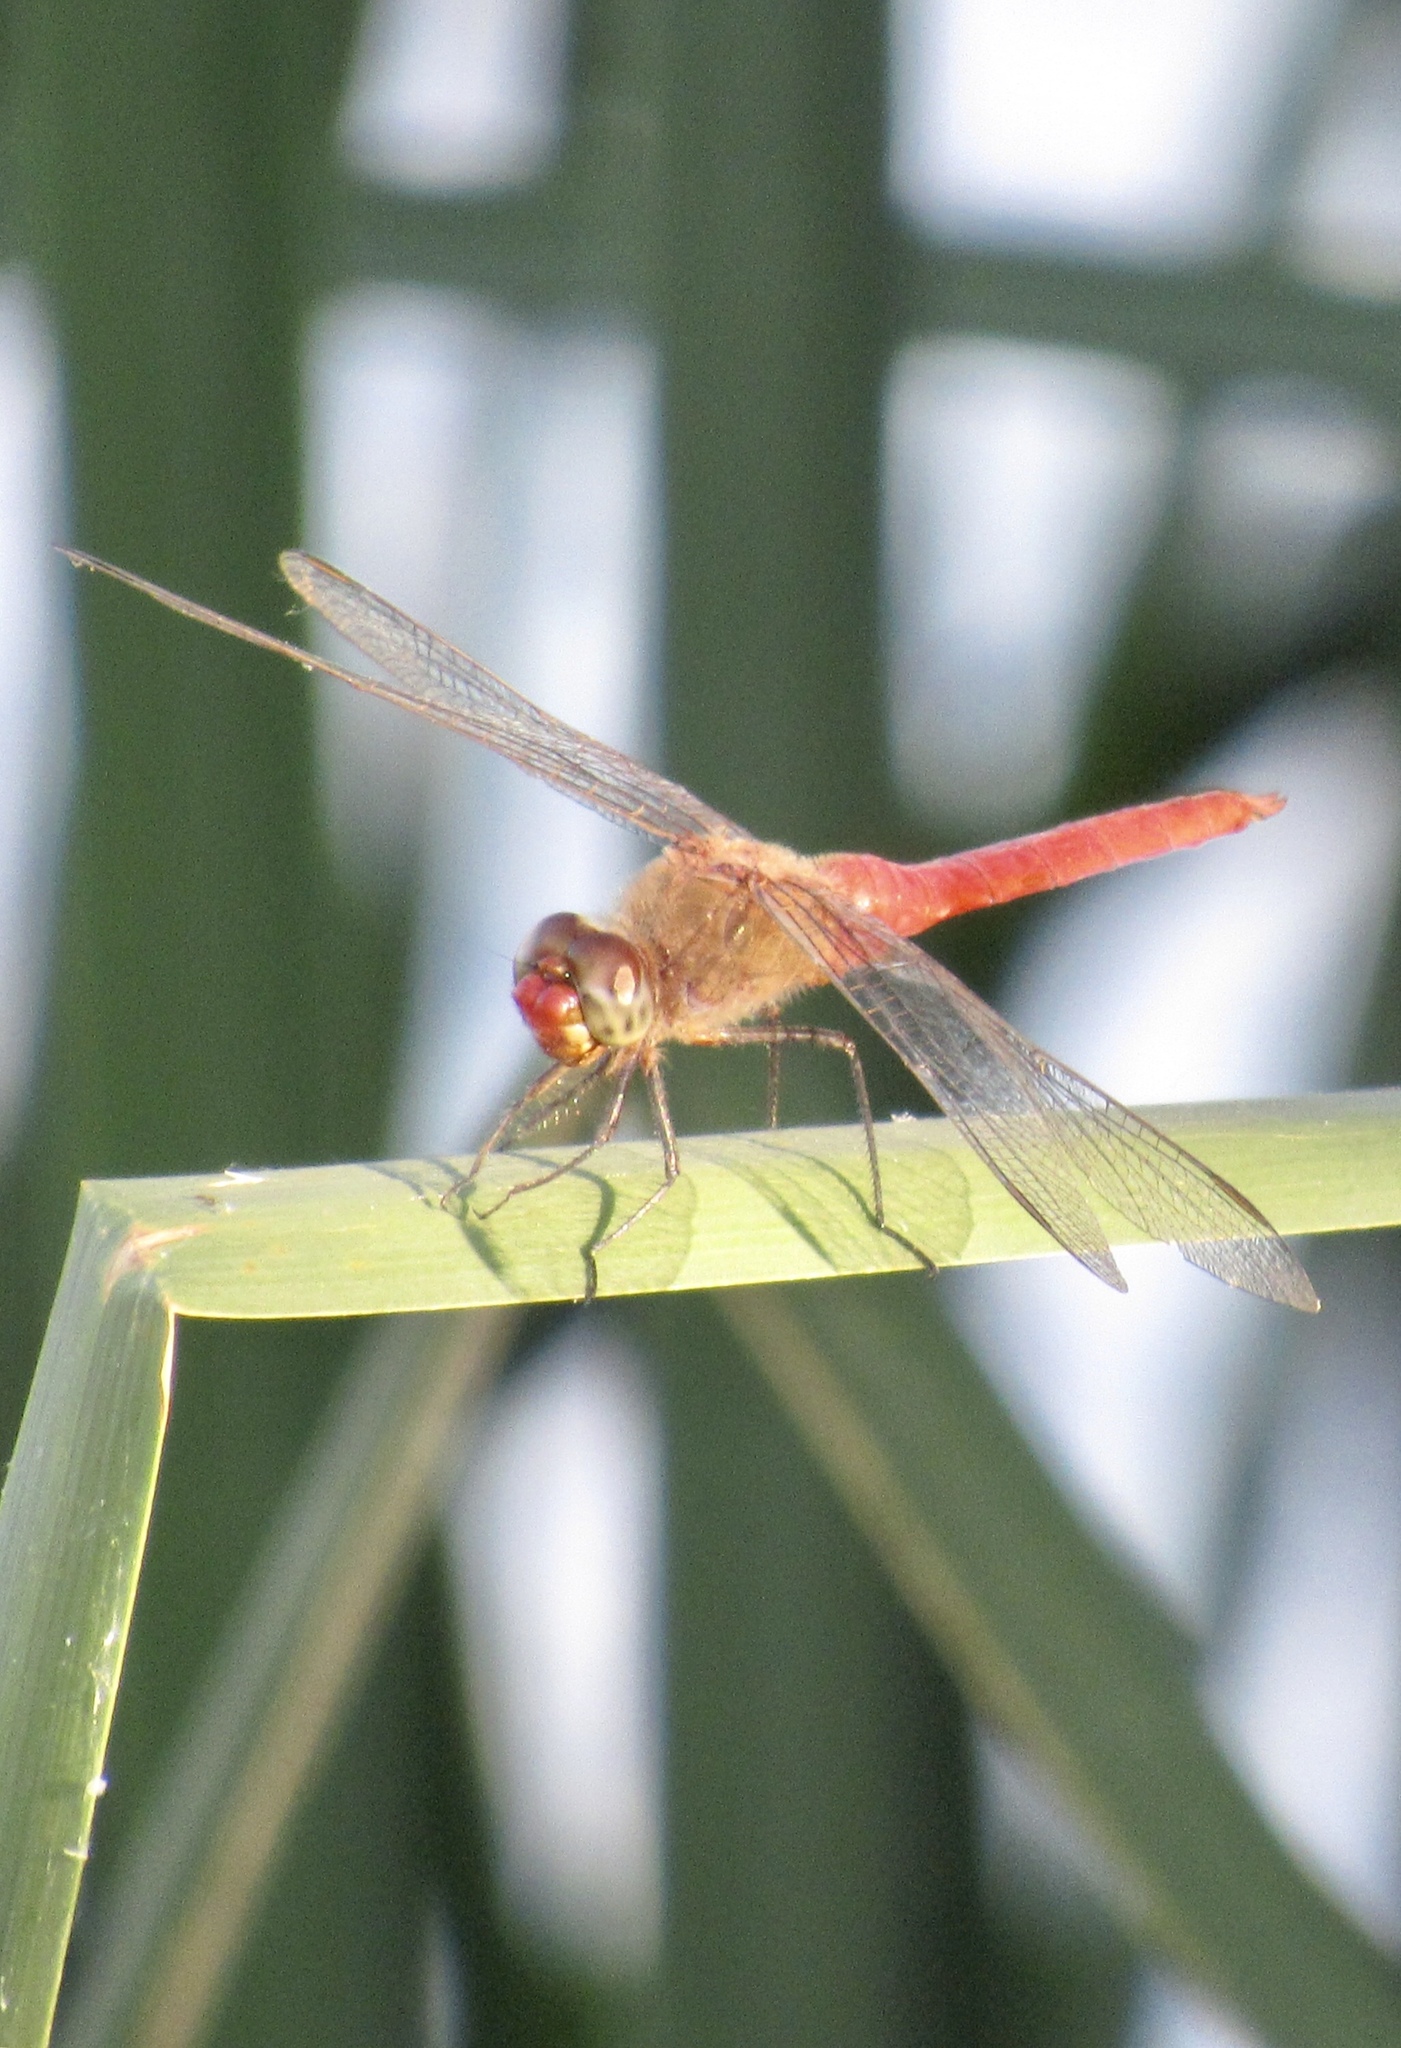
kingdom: Animalia
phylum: Arthropoda
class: Insecta
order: Odonata
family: Libellulidae
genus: Brachymesia
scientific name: Brachymesia furcata
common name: Red-taled pennant
